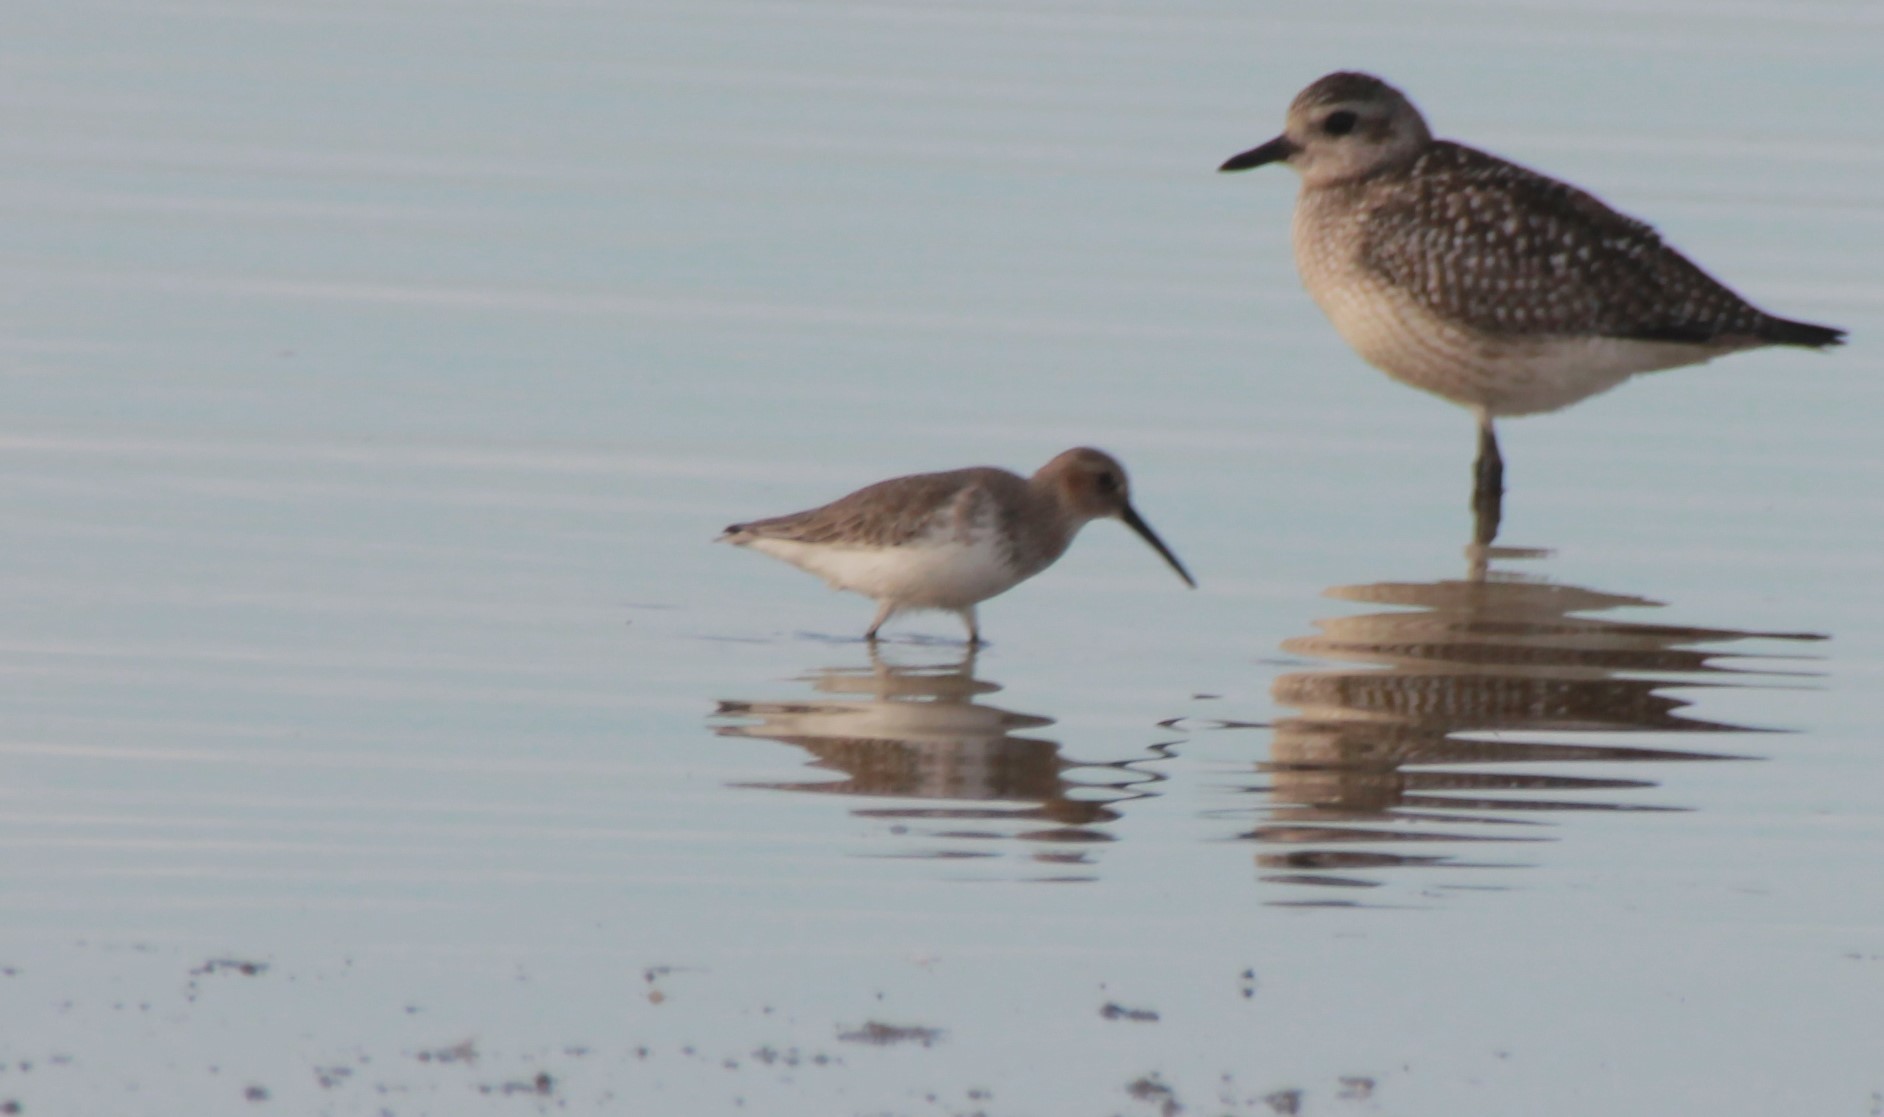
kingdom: Animalia
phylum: Chordata
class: Aves
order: Charadriiformes
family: Scolopacidae
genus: Calidris
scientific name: Calidris alpina
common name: Dunlin
